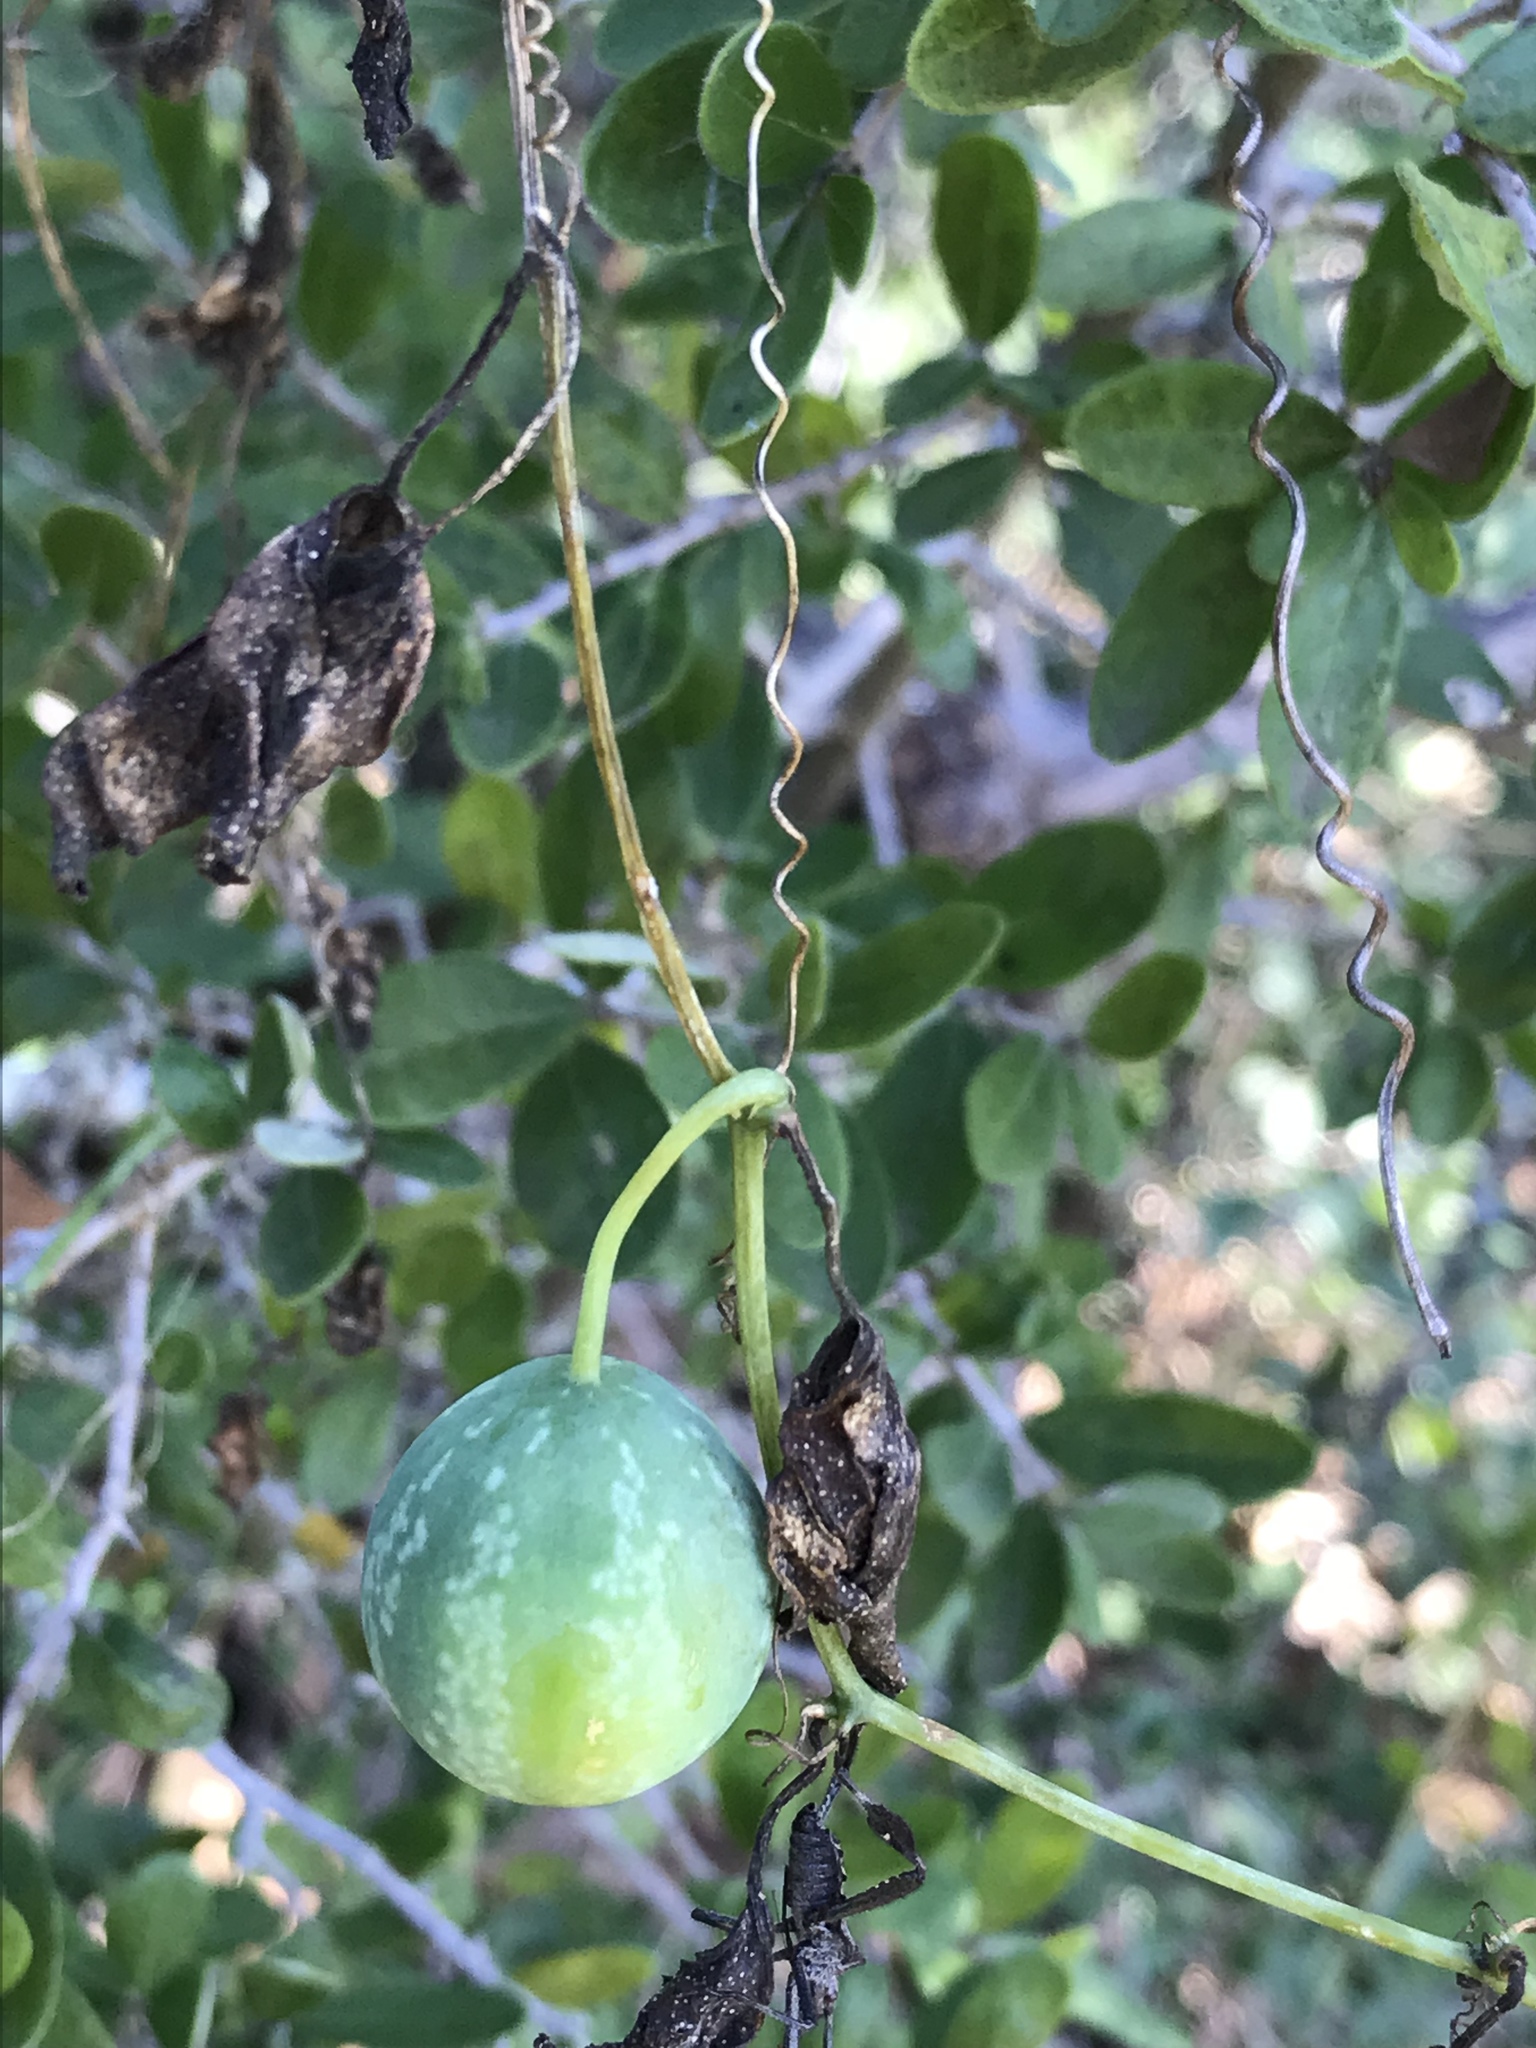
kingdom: Plantae
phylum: Tracheophyta
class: Magnoliopsida
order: Cucurbitales
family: Cucurbitaceae
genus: Ibervillea
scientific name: Ibervillea lindheimeri
